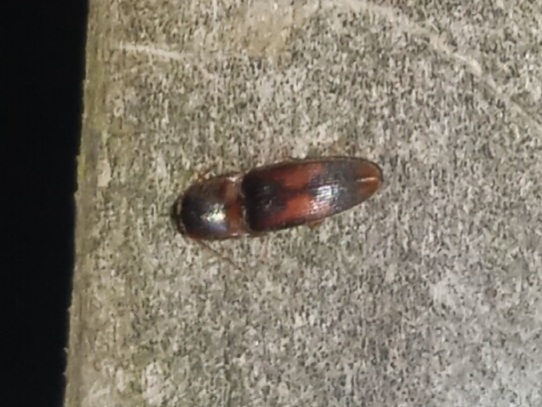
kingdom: Animalia
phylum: Arthropoda
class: Insecta
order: Coleoptera
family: Elateridae
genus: Monocrepidius
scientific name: Monocrepidius
